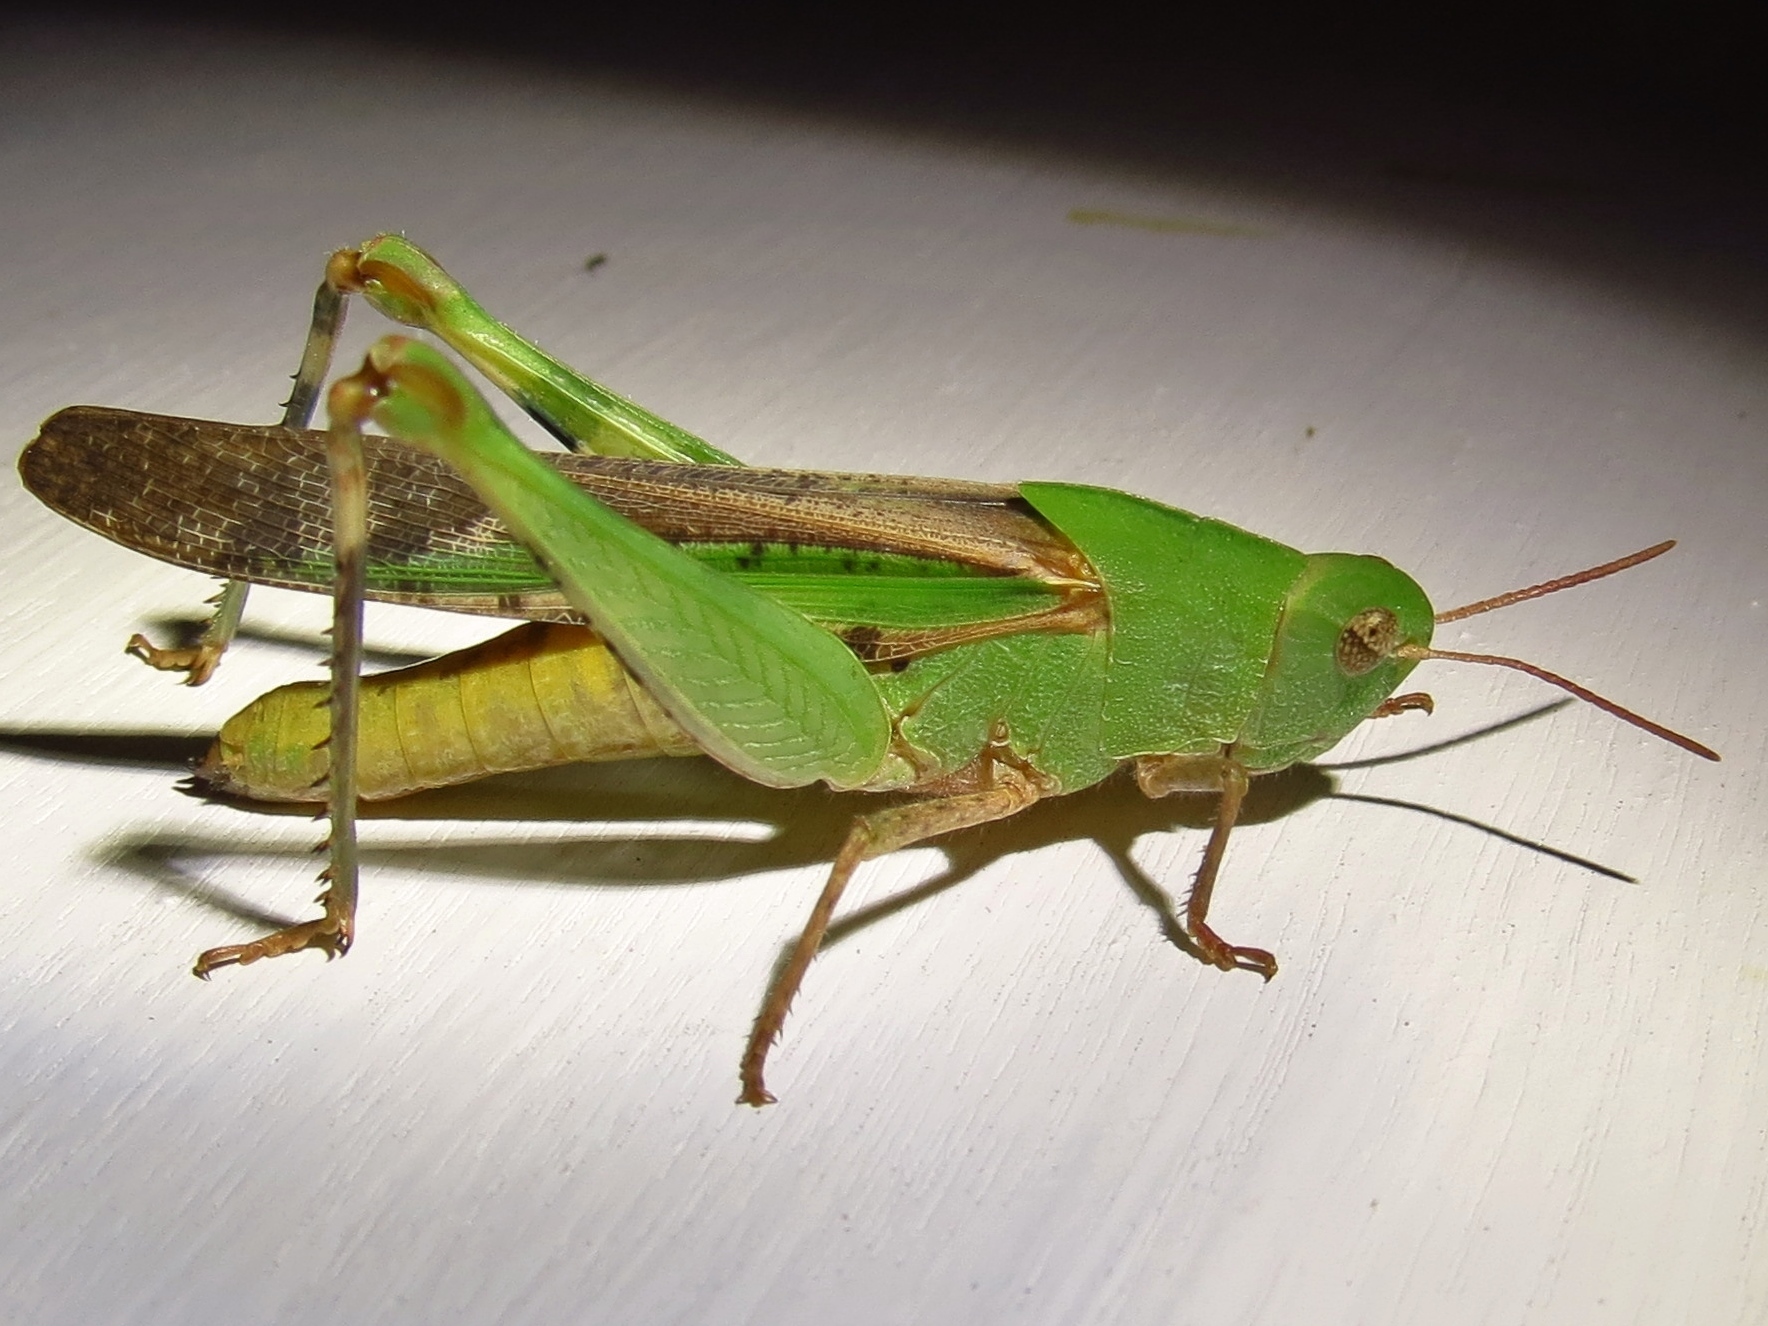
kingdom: Animalia
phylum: Arthropoda
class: Insecta
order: Orthoptera
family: Acrididae
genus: Chortophaga
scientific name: Chortophaga viridifasciata
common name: Green-striped grasshopper
